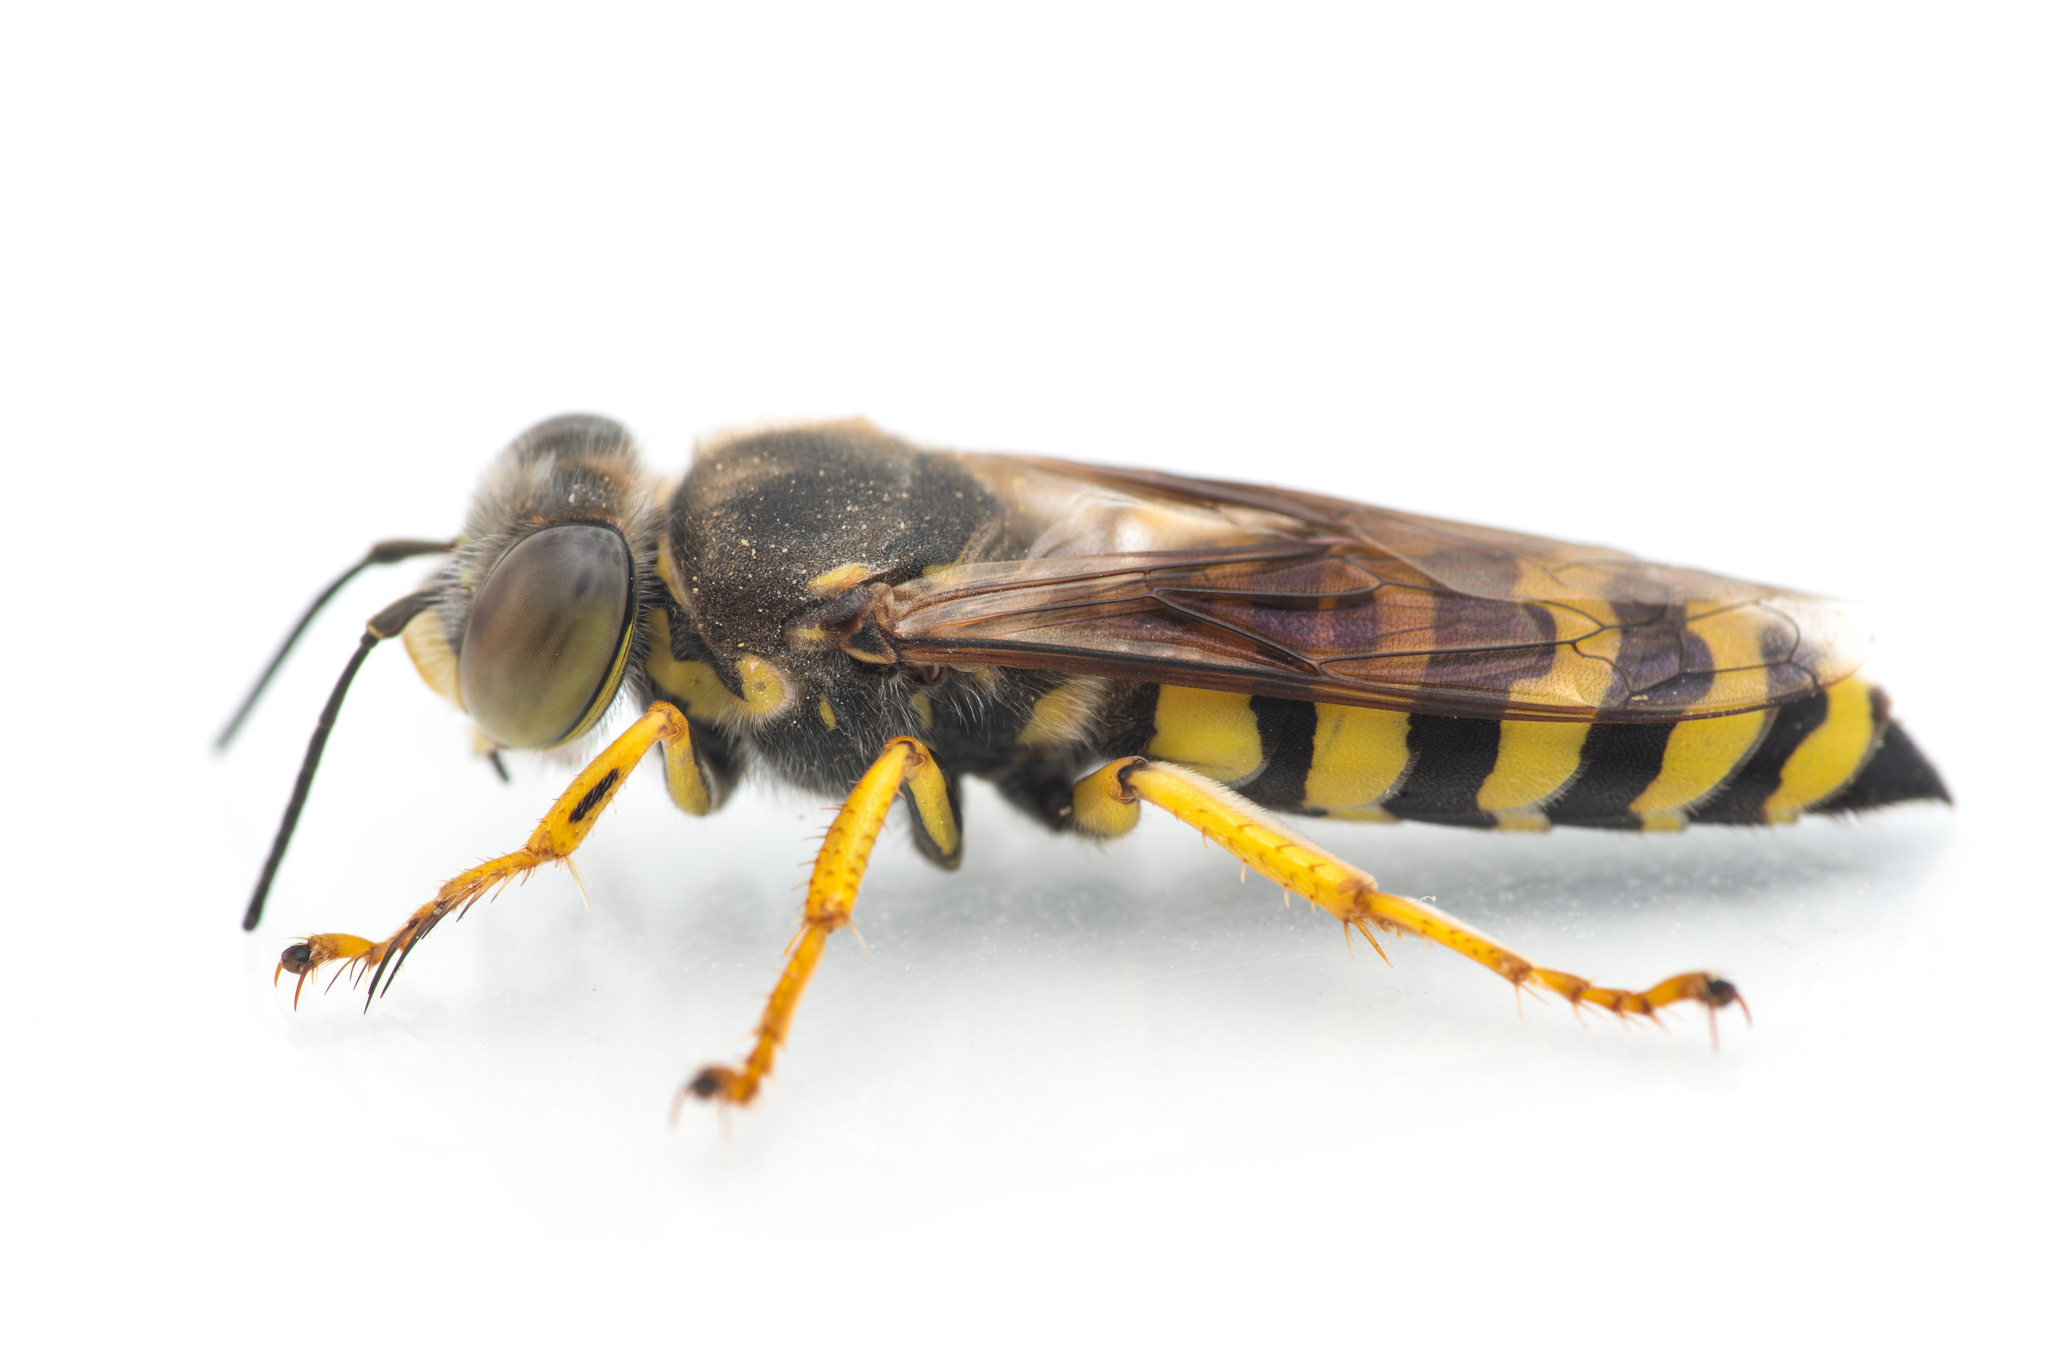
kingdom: Animalia
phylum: Arthropoda
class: Insecta
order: Hymenoptera
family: Crabronidae
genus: Bembix
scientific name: Bembix oculata
